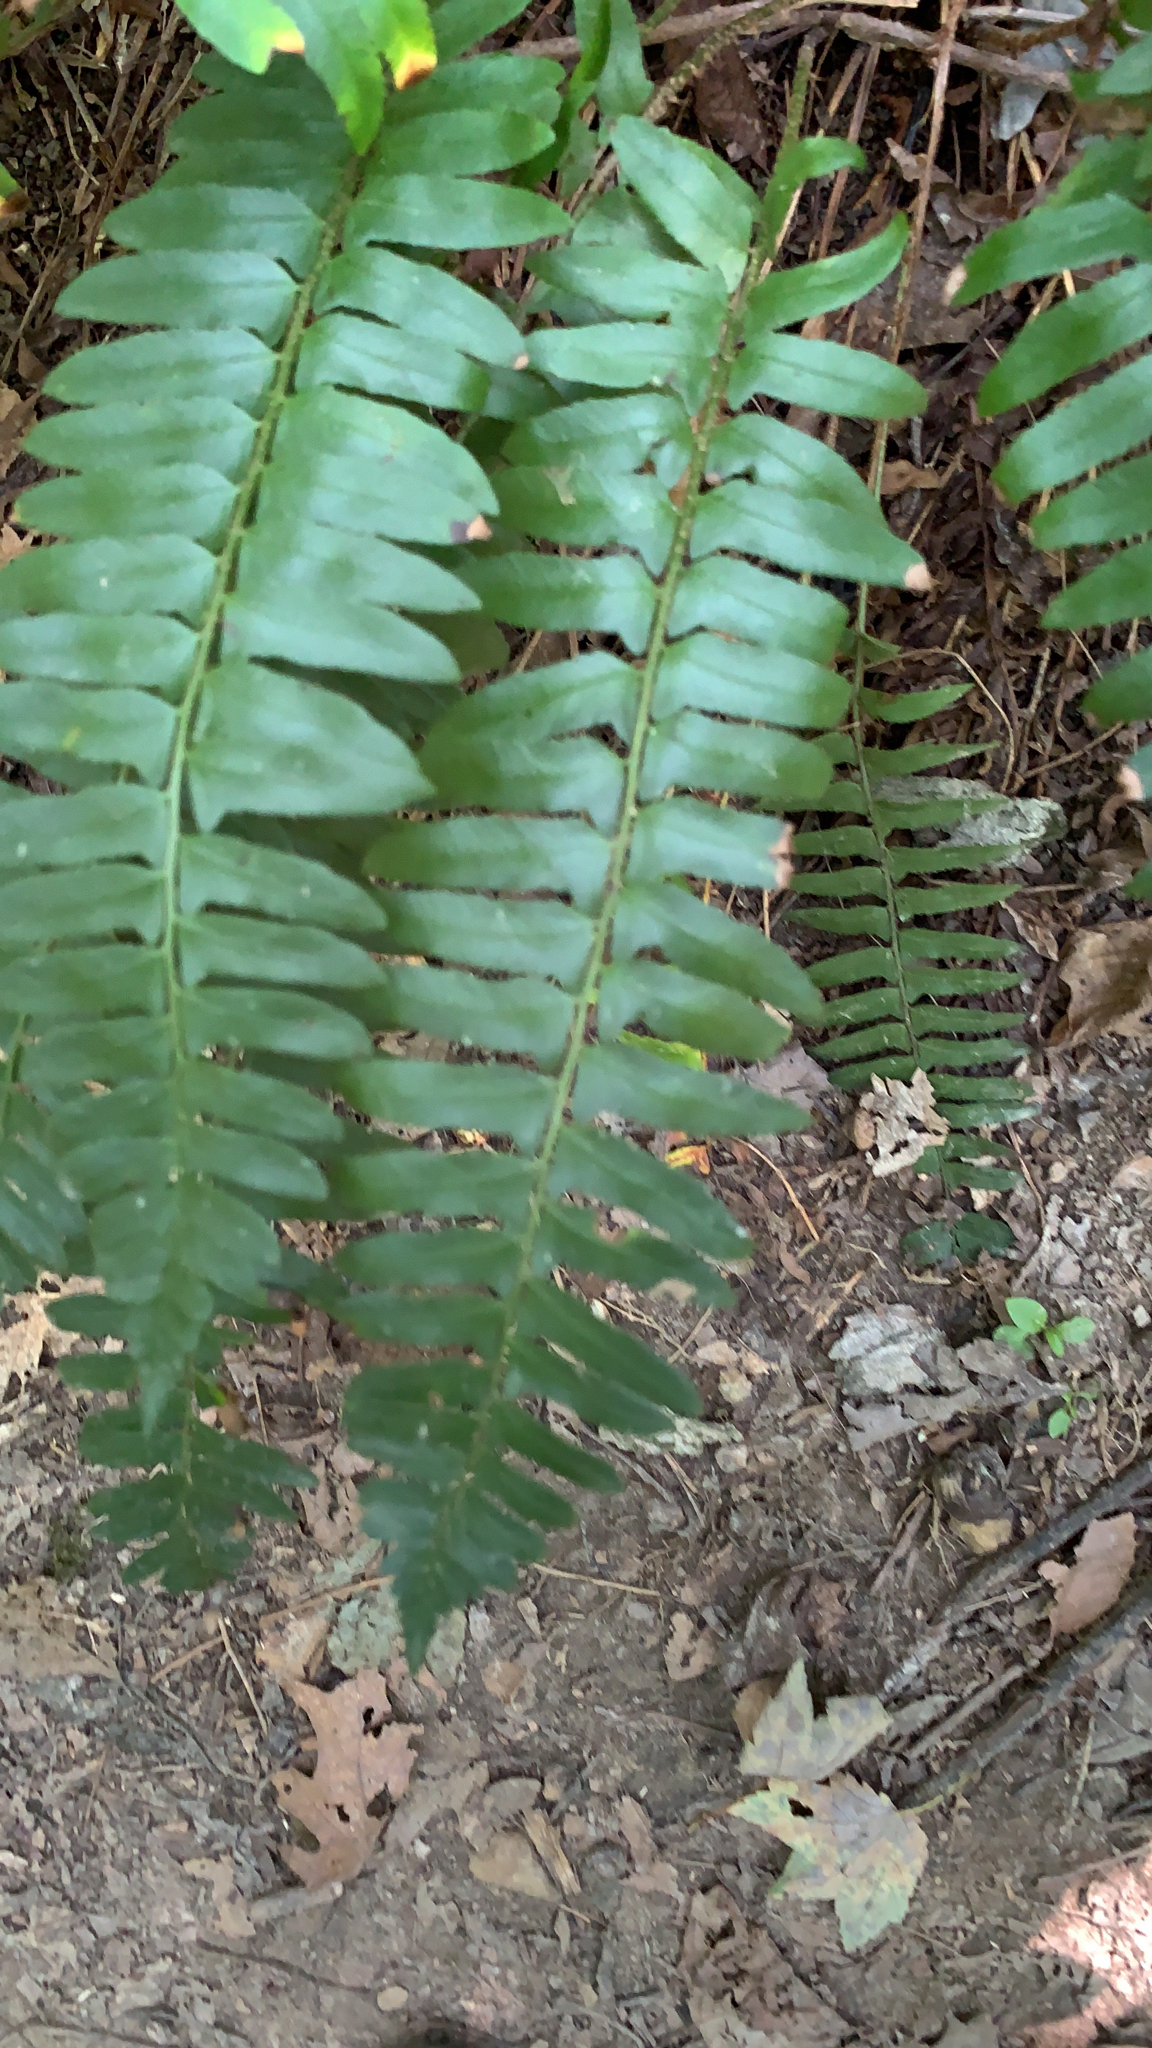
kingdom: Plantae
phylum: Tracheophyta
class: Polypodiopsida
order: Polypodiales
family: Dryopteridaceae
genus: Polystichum
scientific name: Polystichum acrostichoides
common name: Christmas fern
